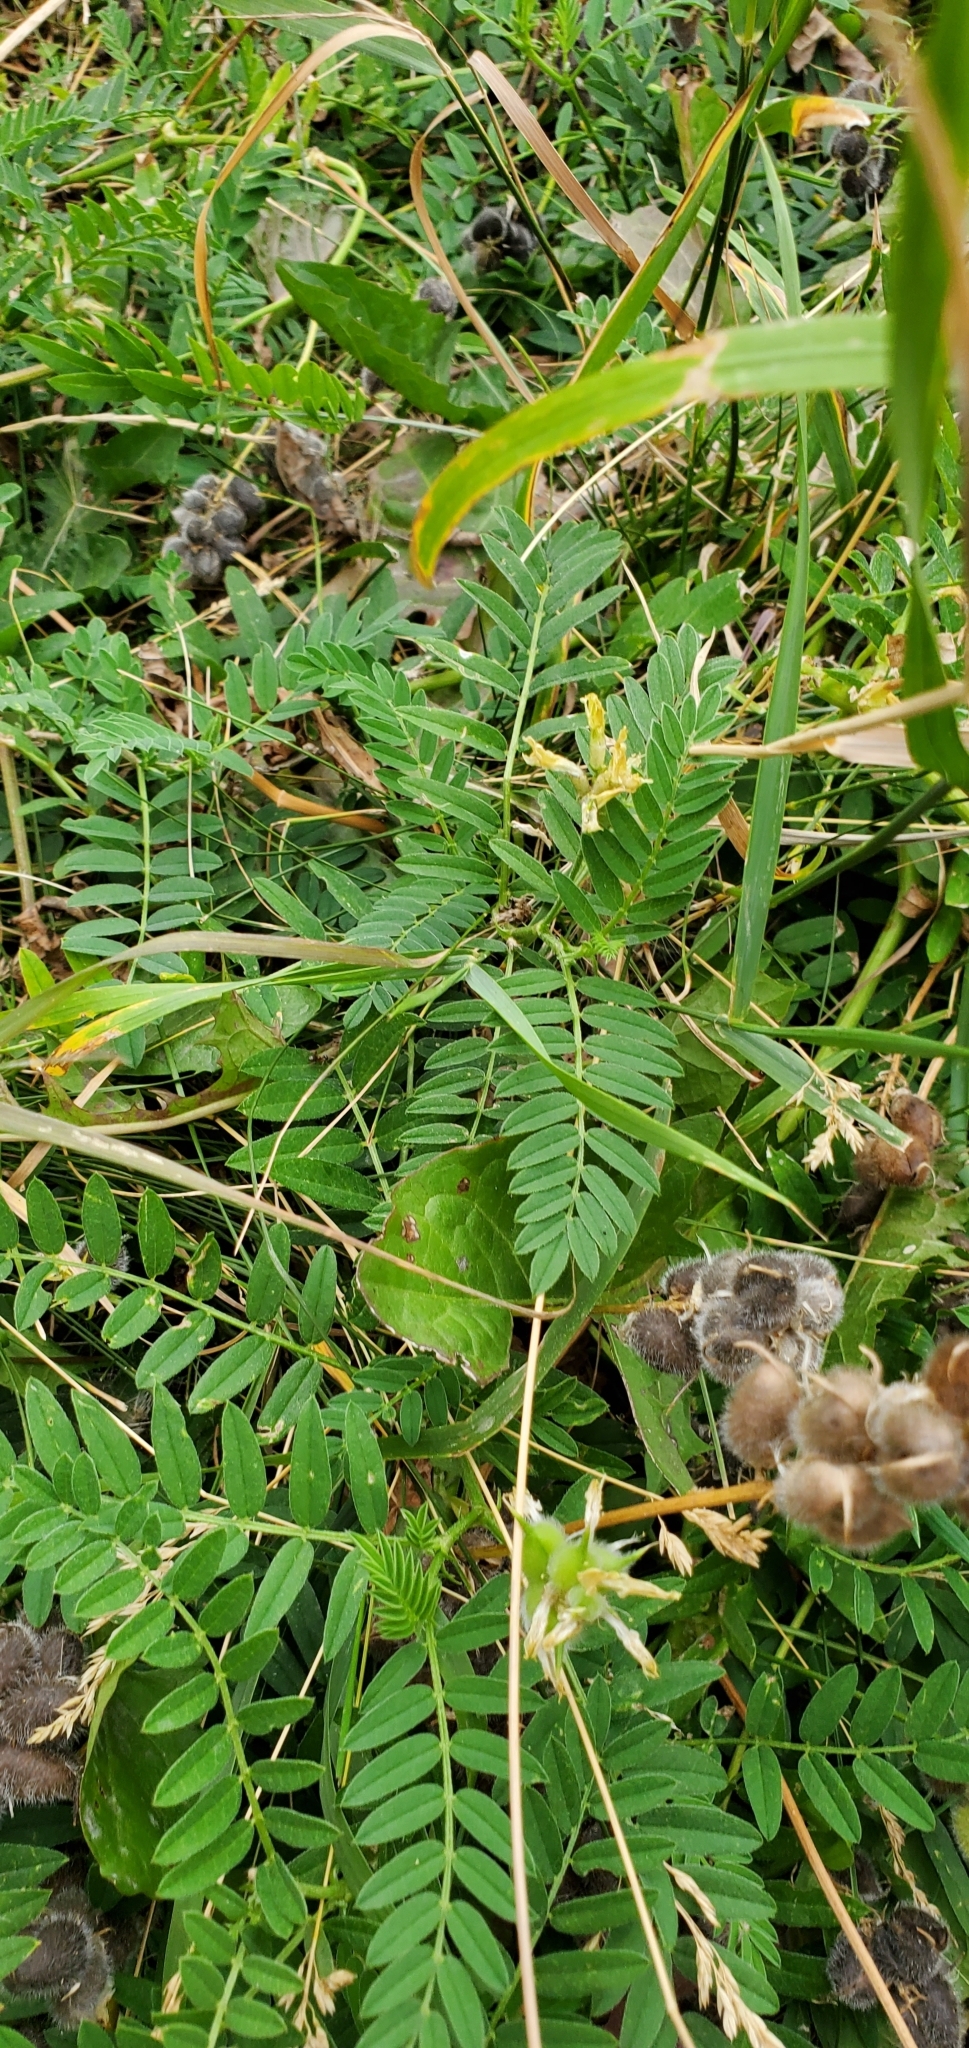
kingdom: Plantae
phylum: Tracheophyta
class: Magnoliopsida
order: Fabales
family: Fabaceae
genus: Astragalus
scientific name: Astragalus cicer
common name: Chick-pea milk-vetch
